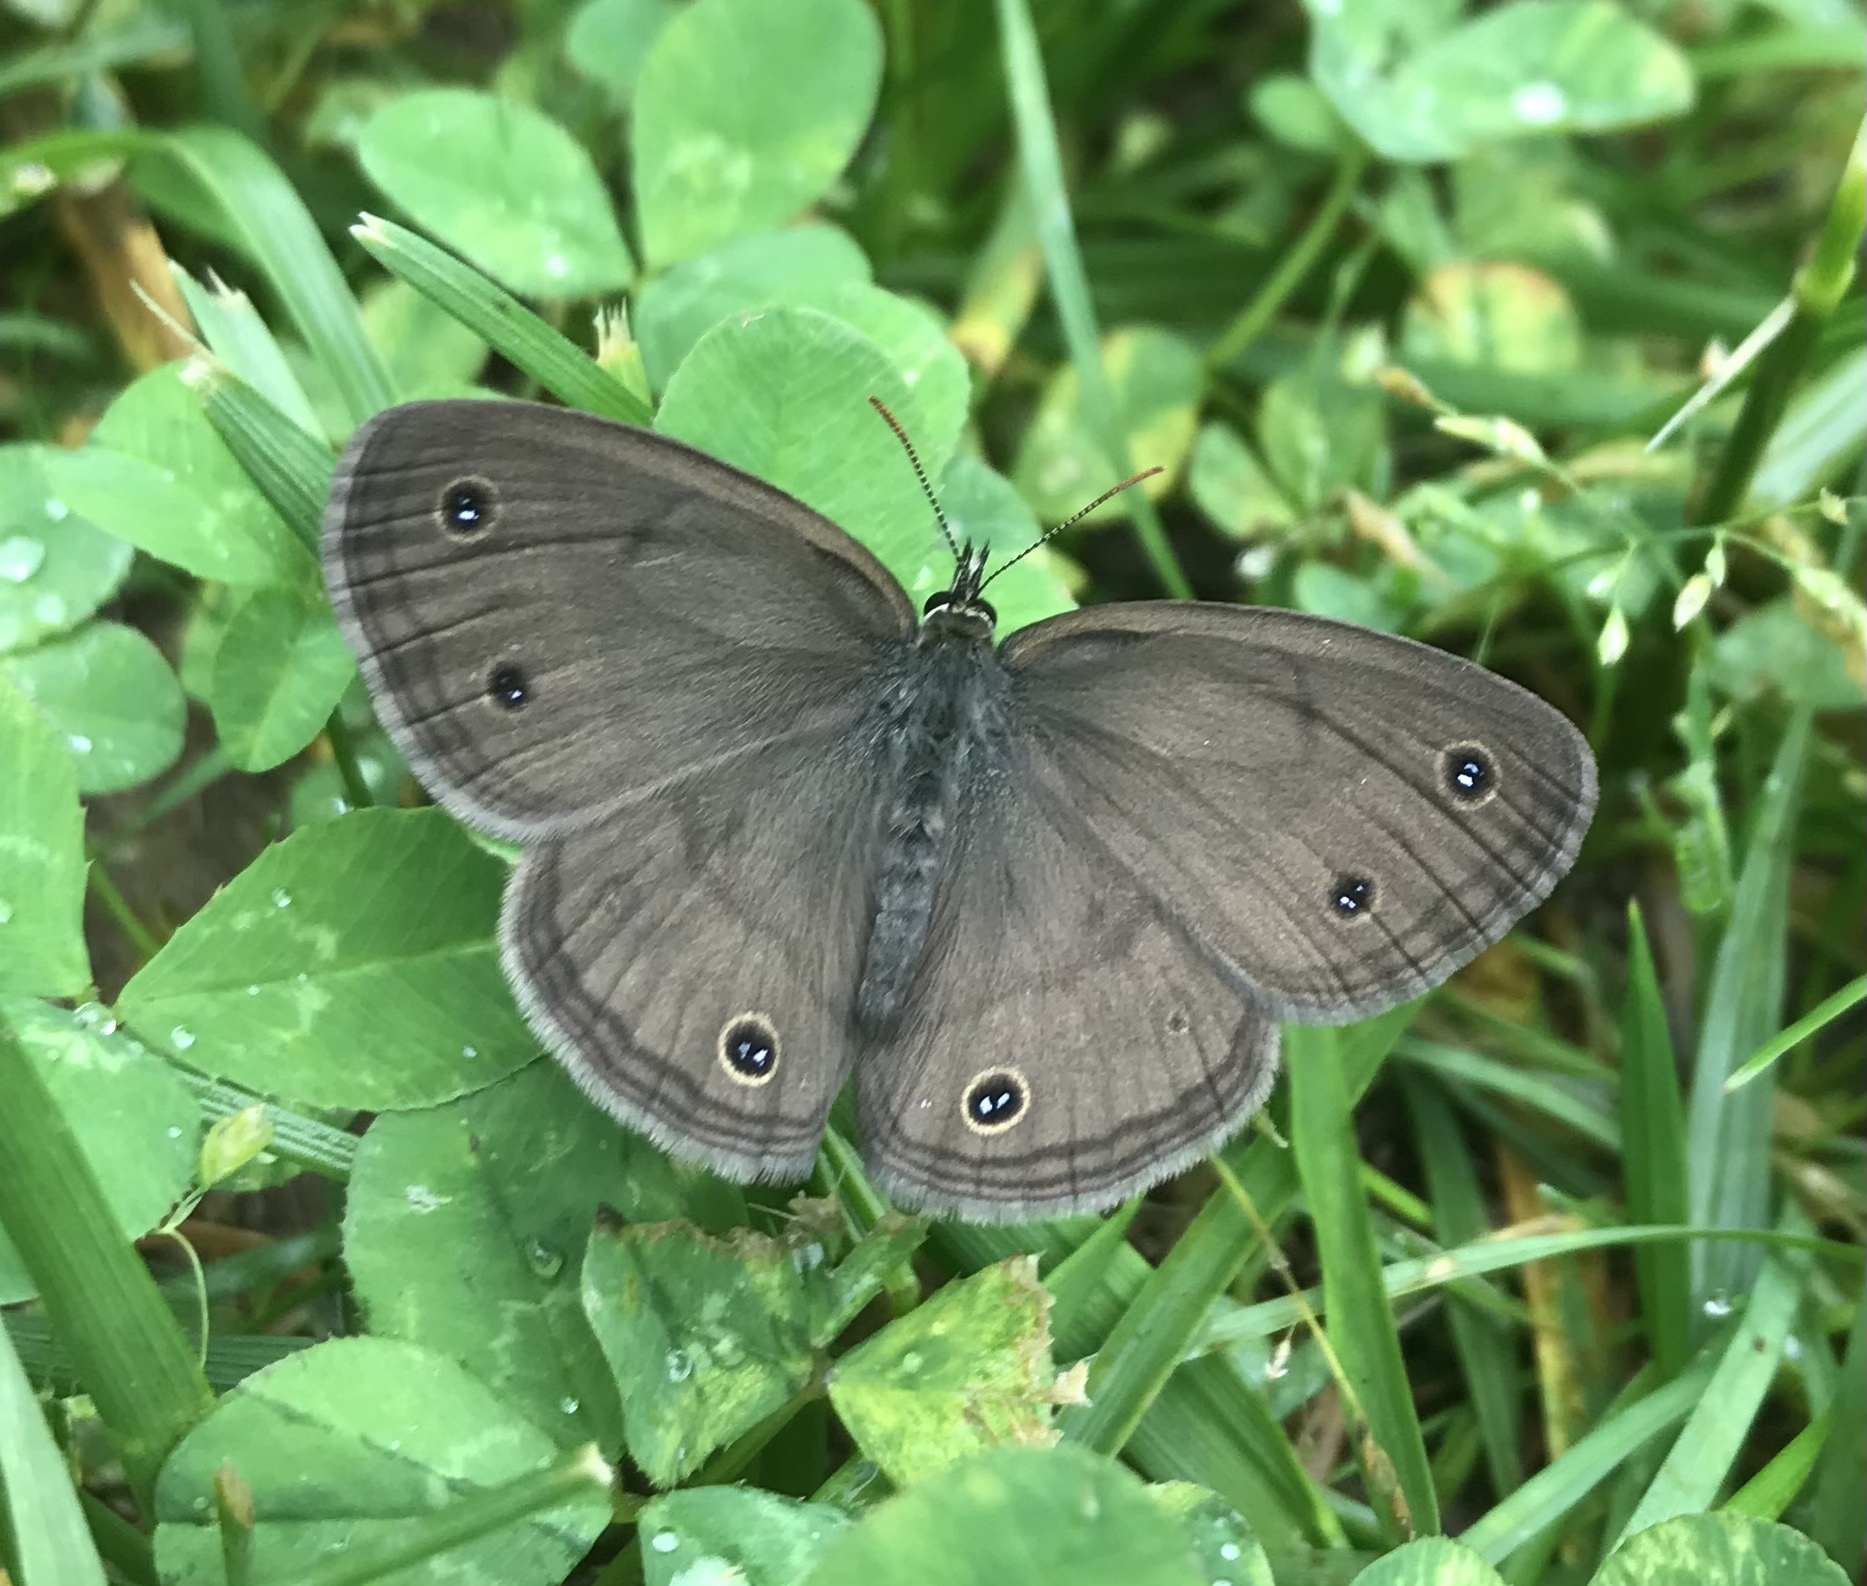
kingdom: Animalia
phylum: Arthropoda
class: Insecta
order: Lepidoptera
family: Nymphalidae
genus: Euptychia
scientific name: Euptychia cymela
